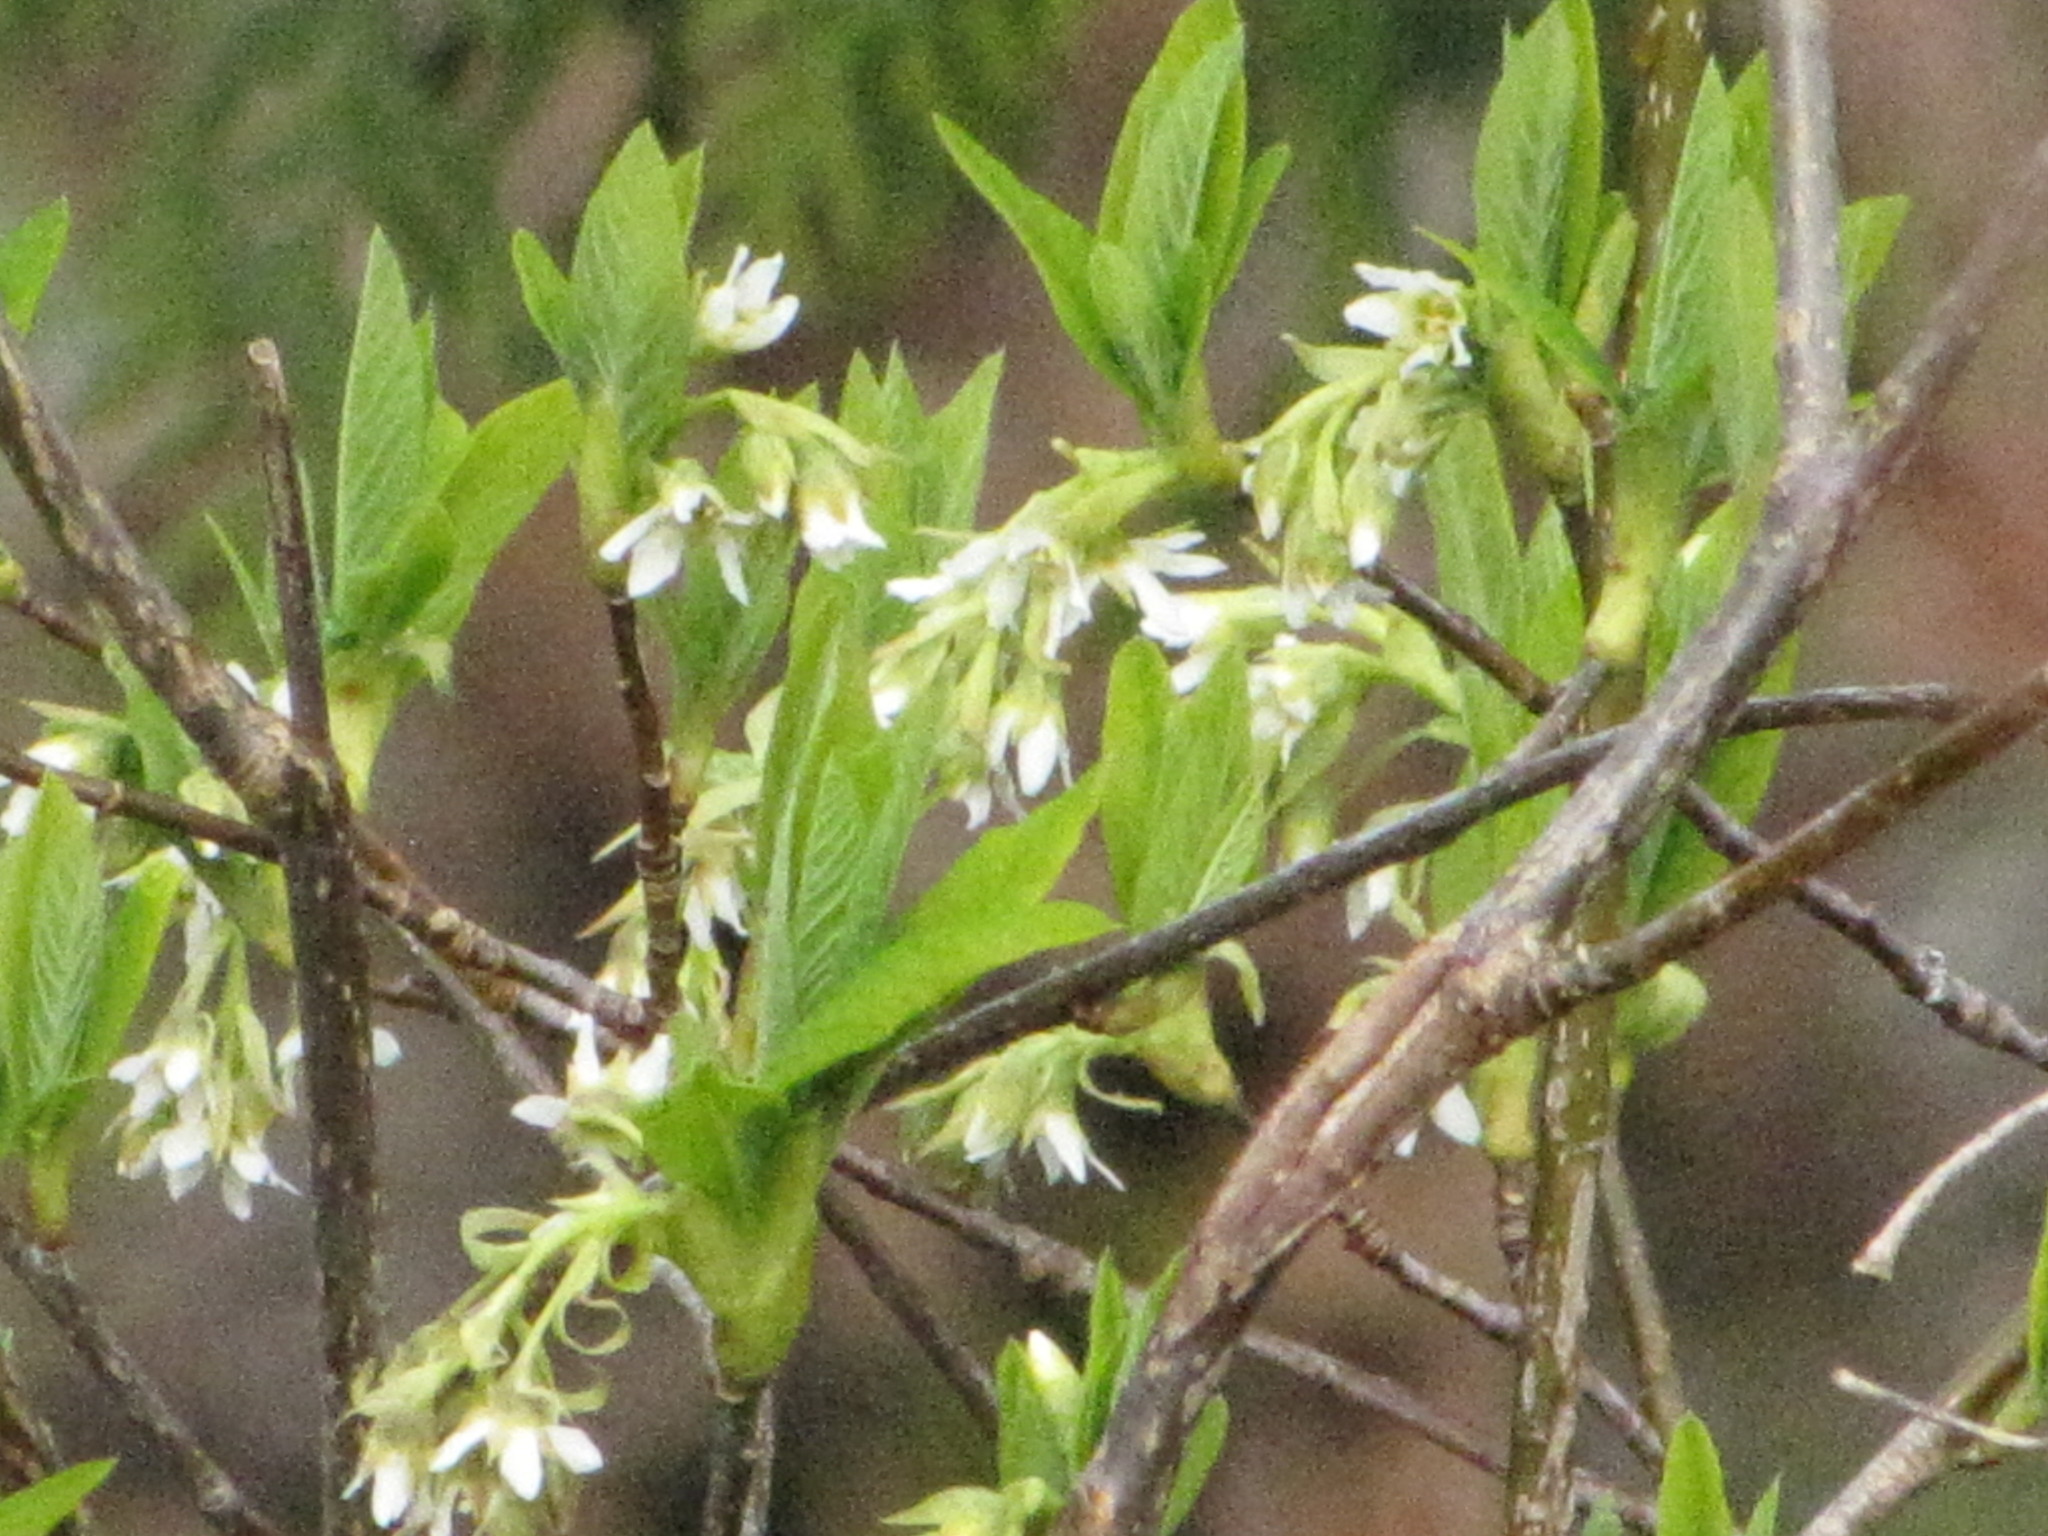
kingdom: Plantae
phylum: Tracheophyta
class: Magnoliopsida
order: Rosales
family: Rosaceae
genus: Oemleria
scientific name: Oemleria cerasiformis
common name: Osoberry
